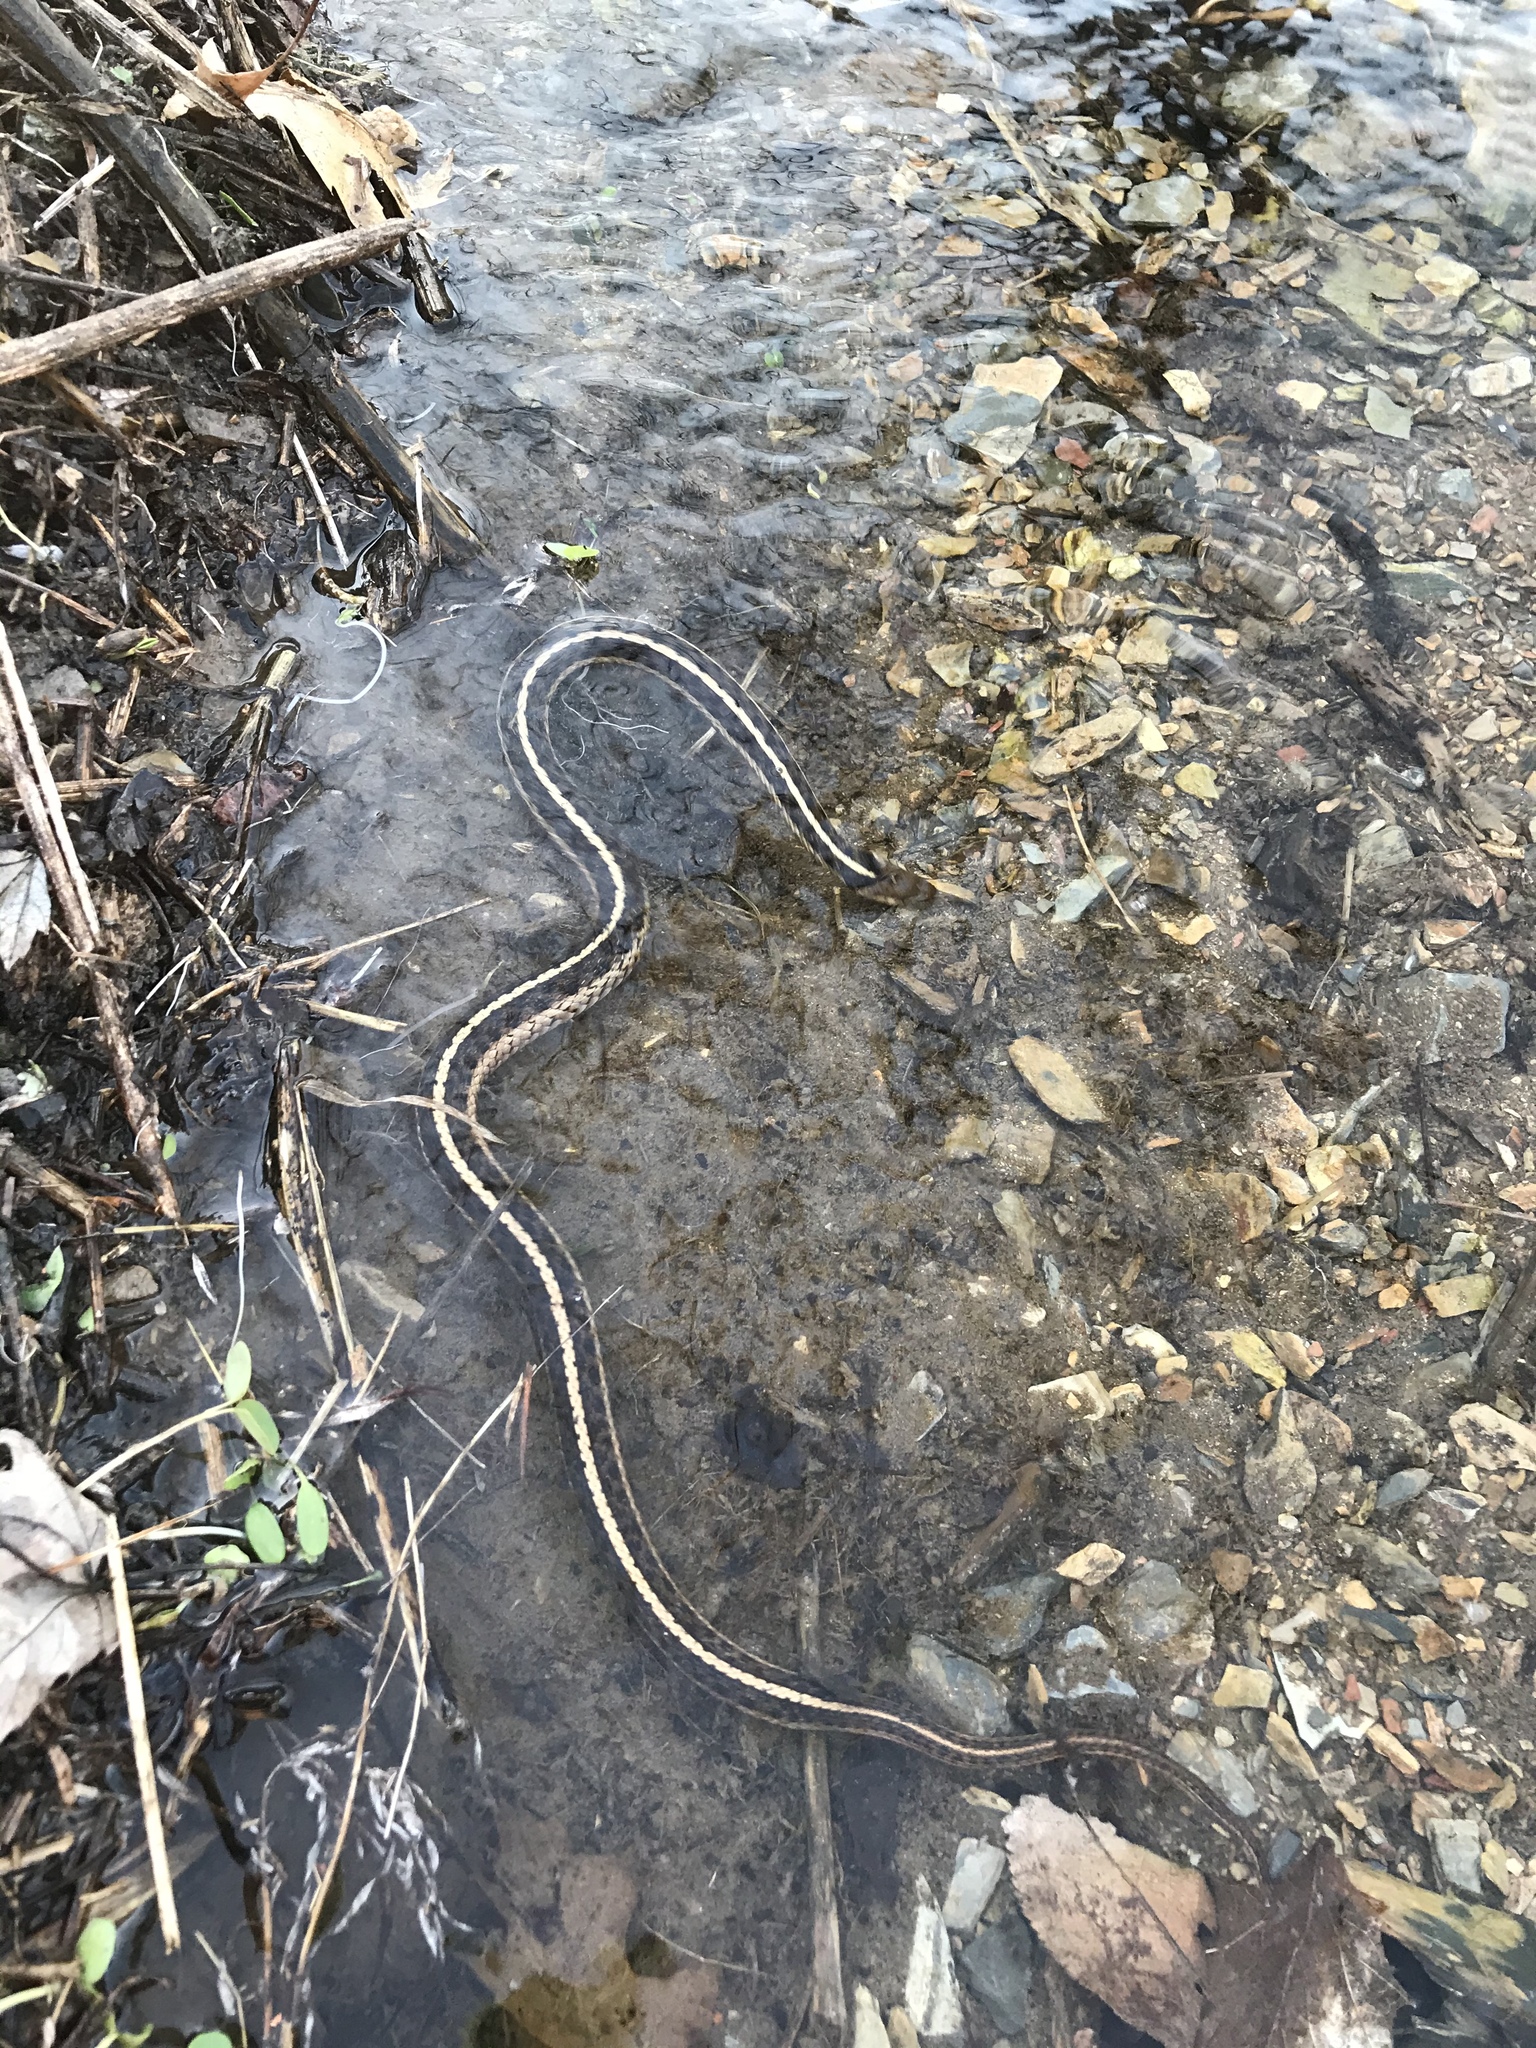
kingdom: Animalia
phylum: Chordata
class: Squamata
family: Colubridae
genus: Thamnophis
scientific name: Thamnophis sirtalis
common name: Common garter snake
